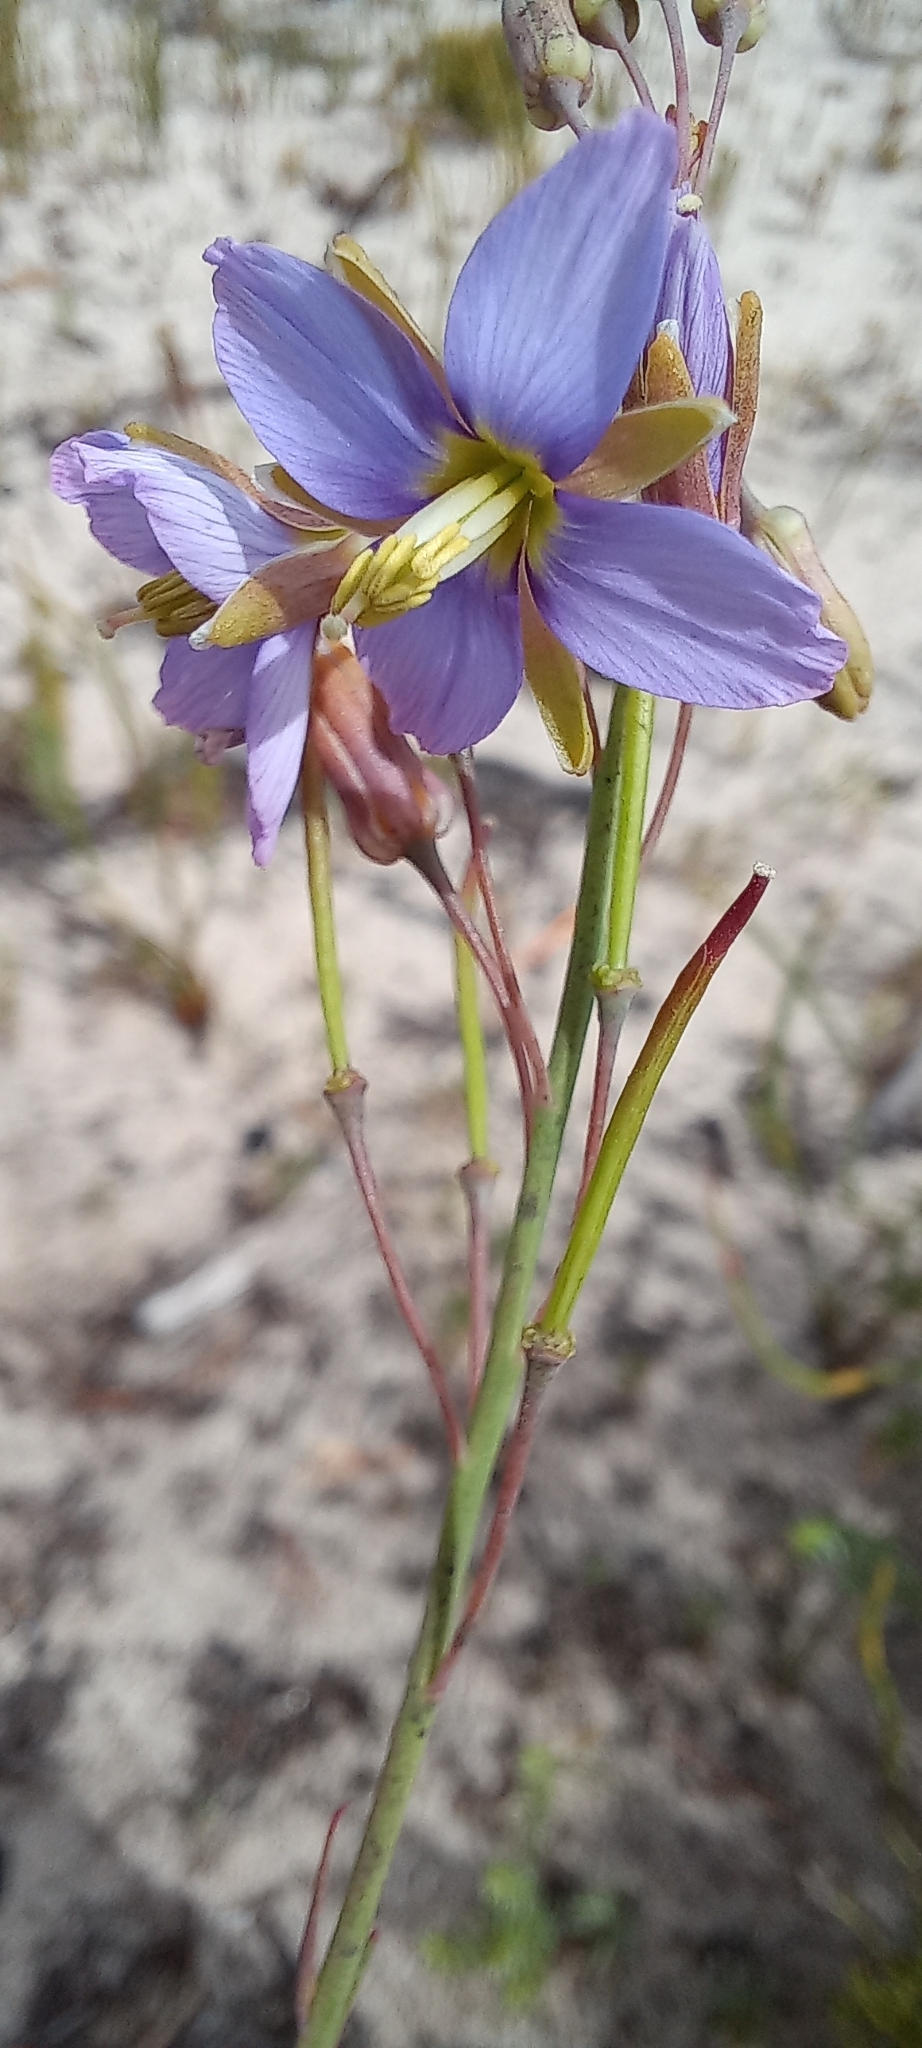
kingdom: Plantae
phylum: Tracheophyta
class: Magnoliopsida
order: Brassicales
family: Brassicaceae
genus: Heliophila
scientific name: Heliophila linearis
